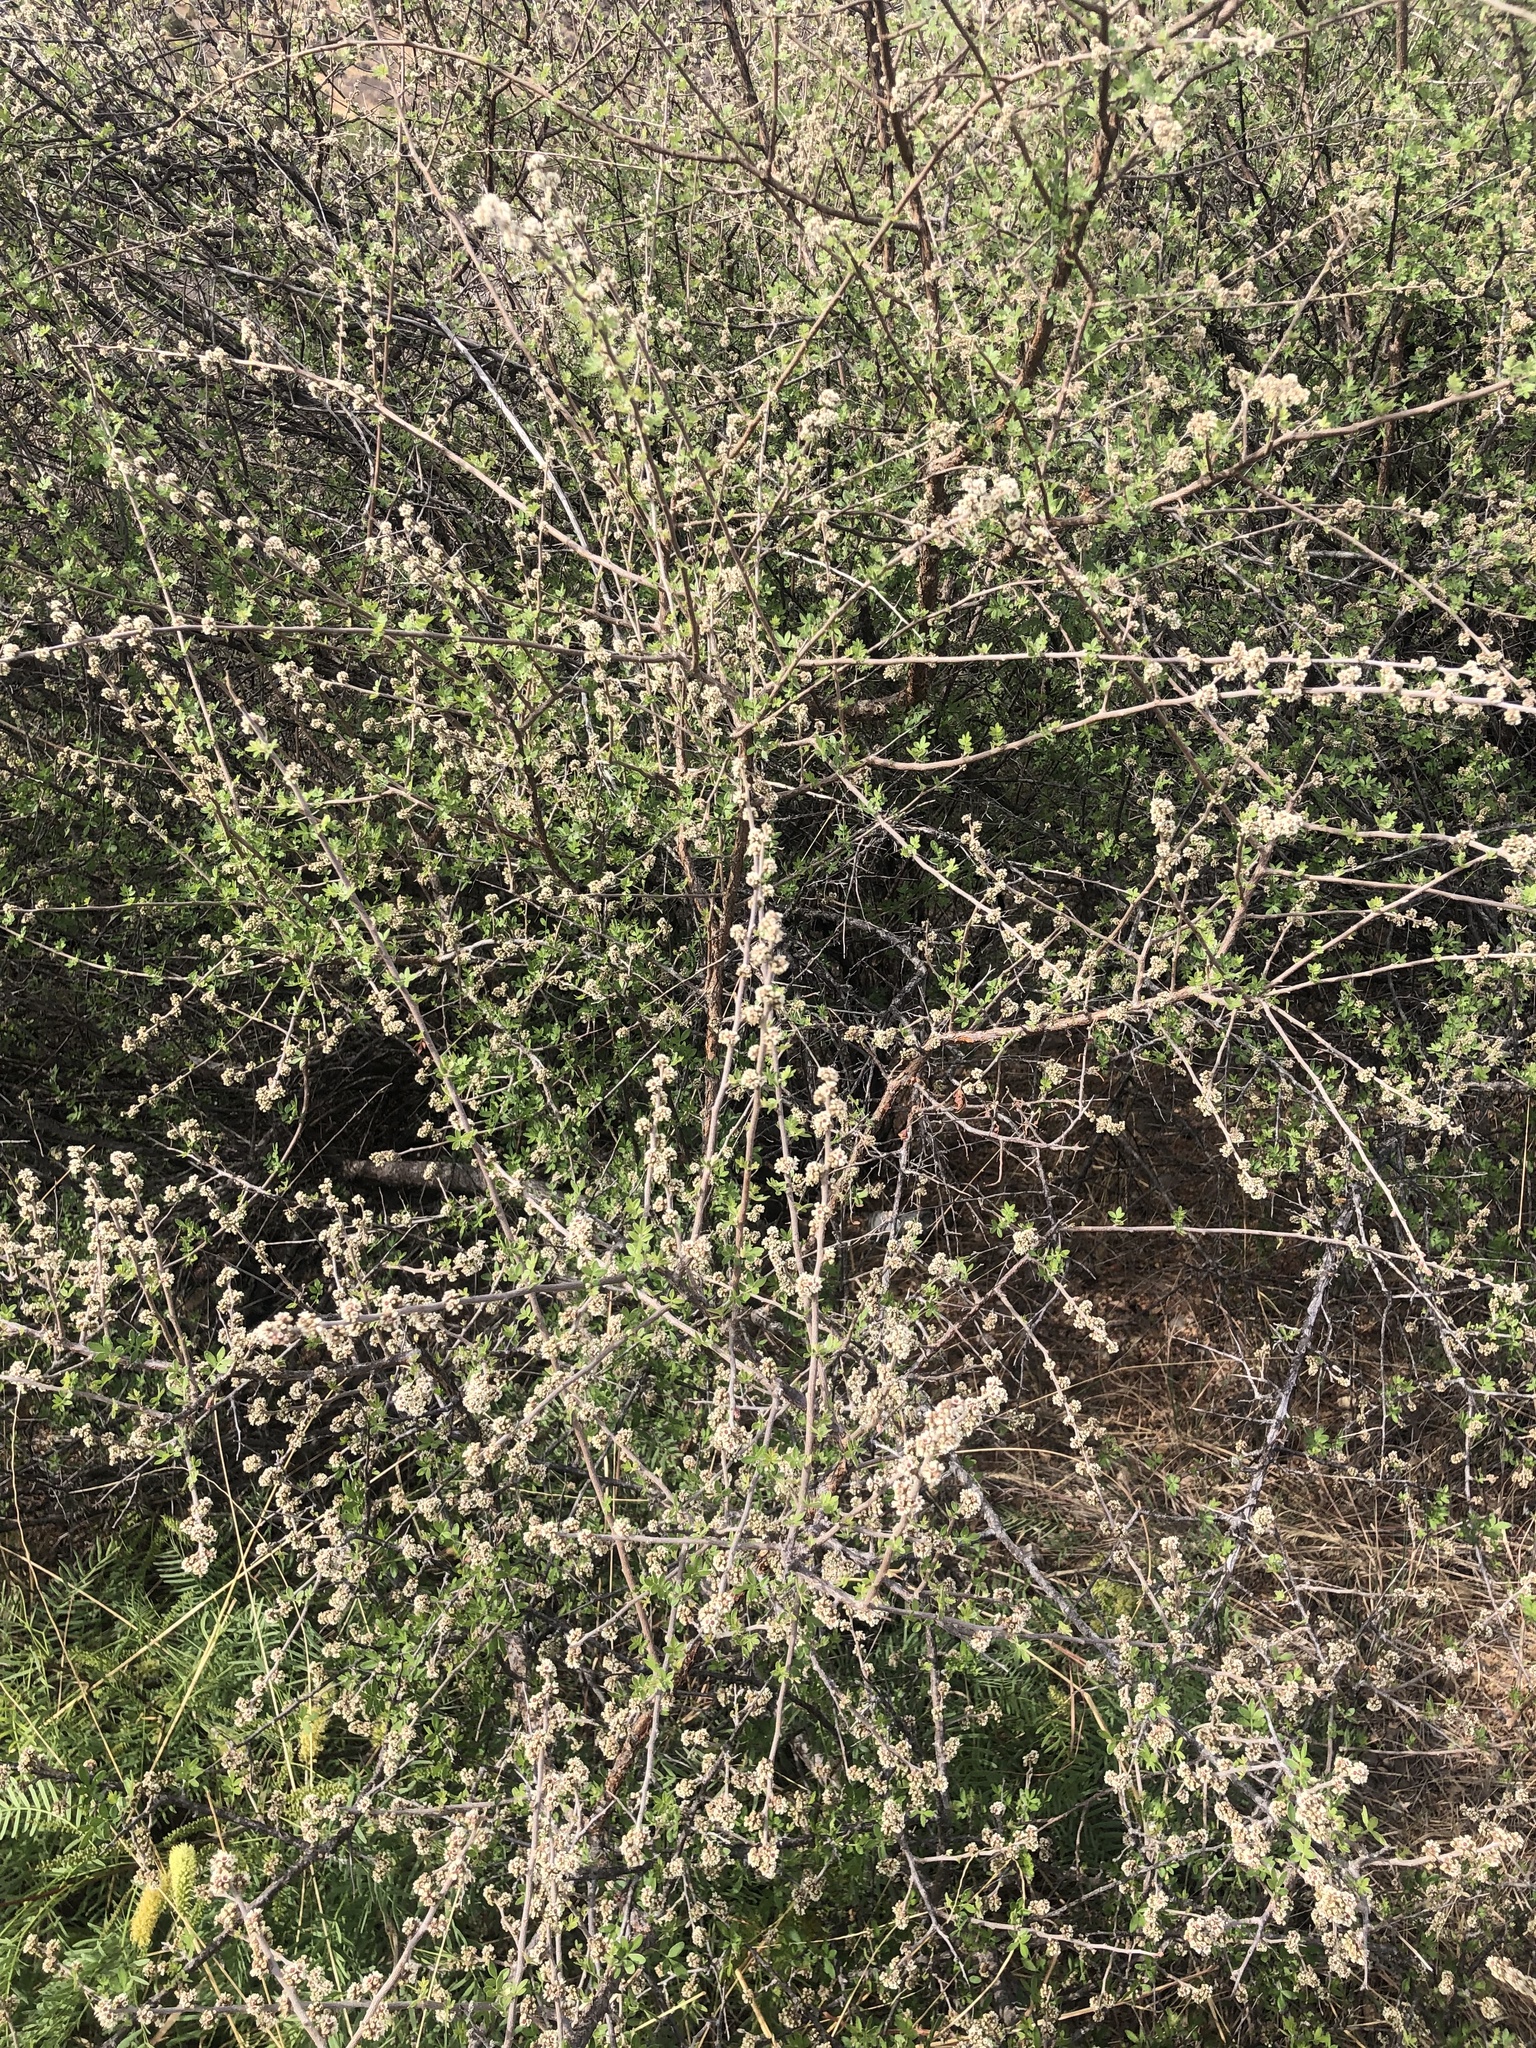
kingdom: Plantae
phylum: Tracheophyta
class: Magnoliopsida
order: Sapindales
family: Anacardiaceae
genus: Rhus
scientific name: Rhus microphylla
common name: Desert sumac
